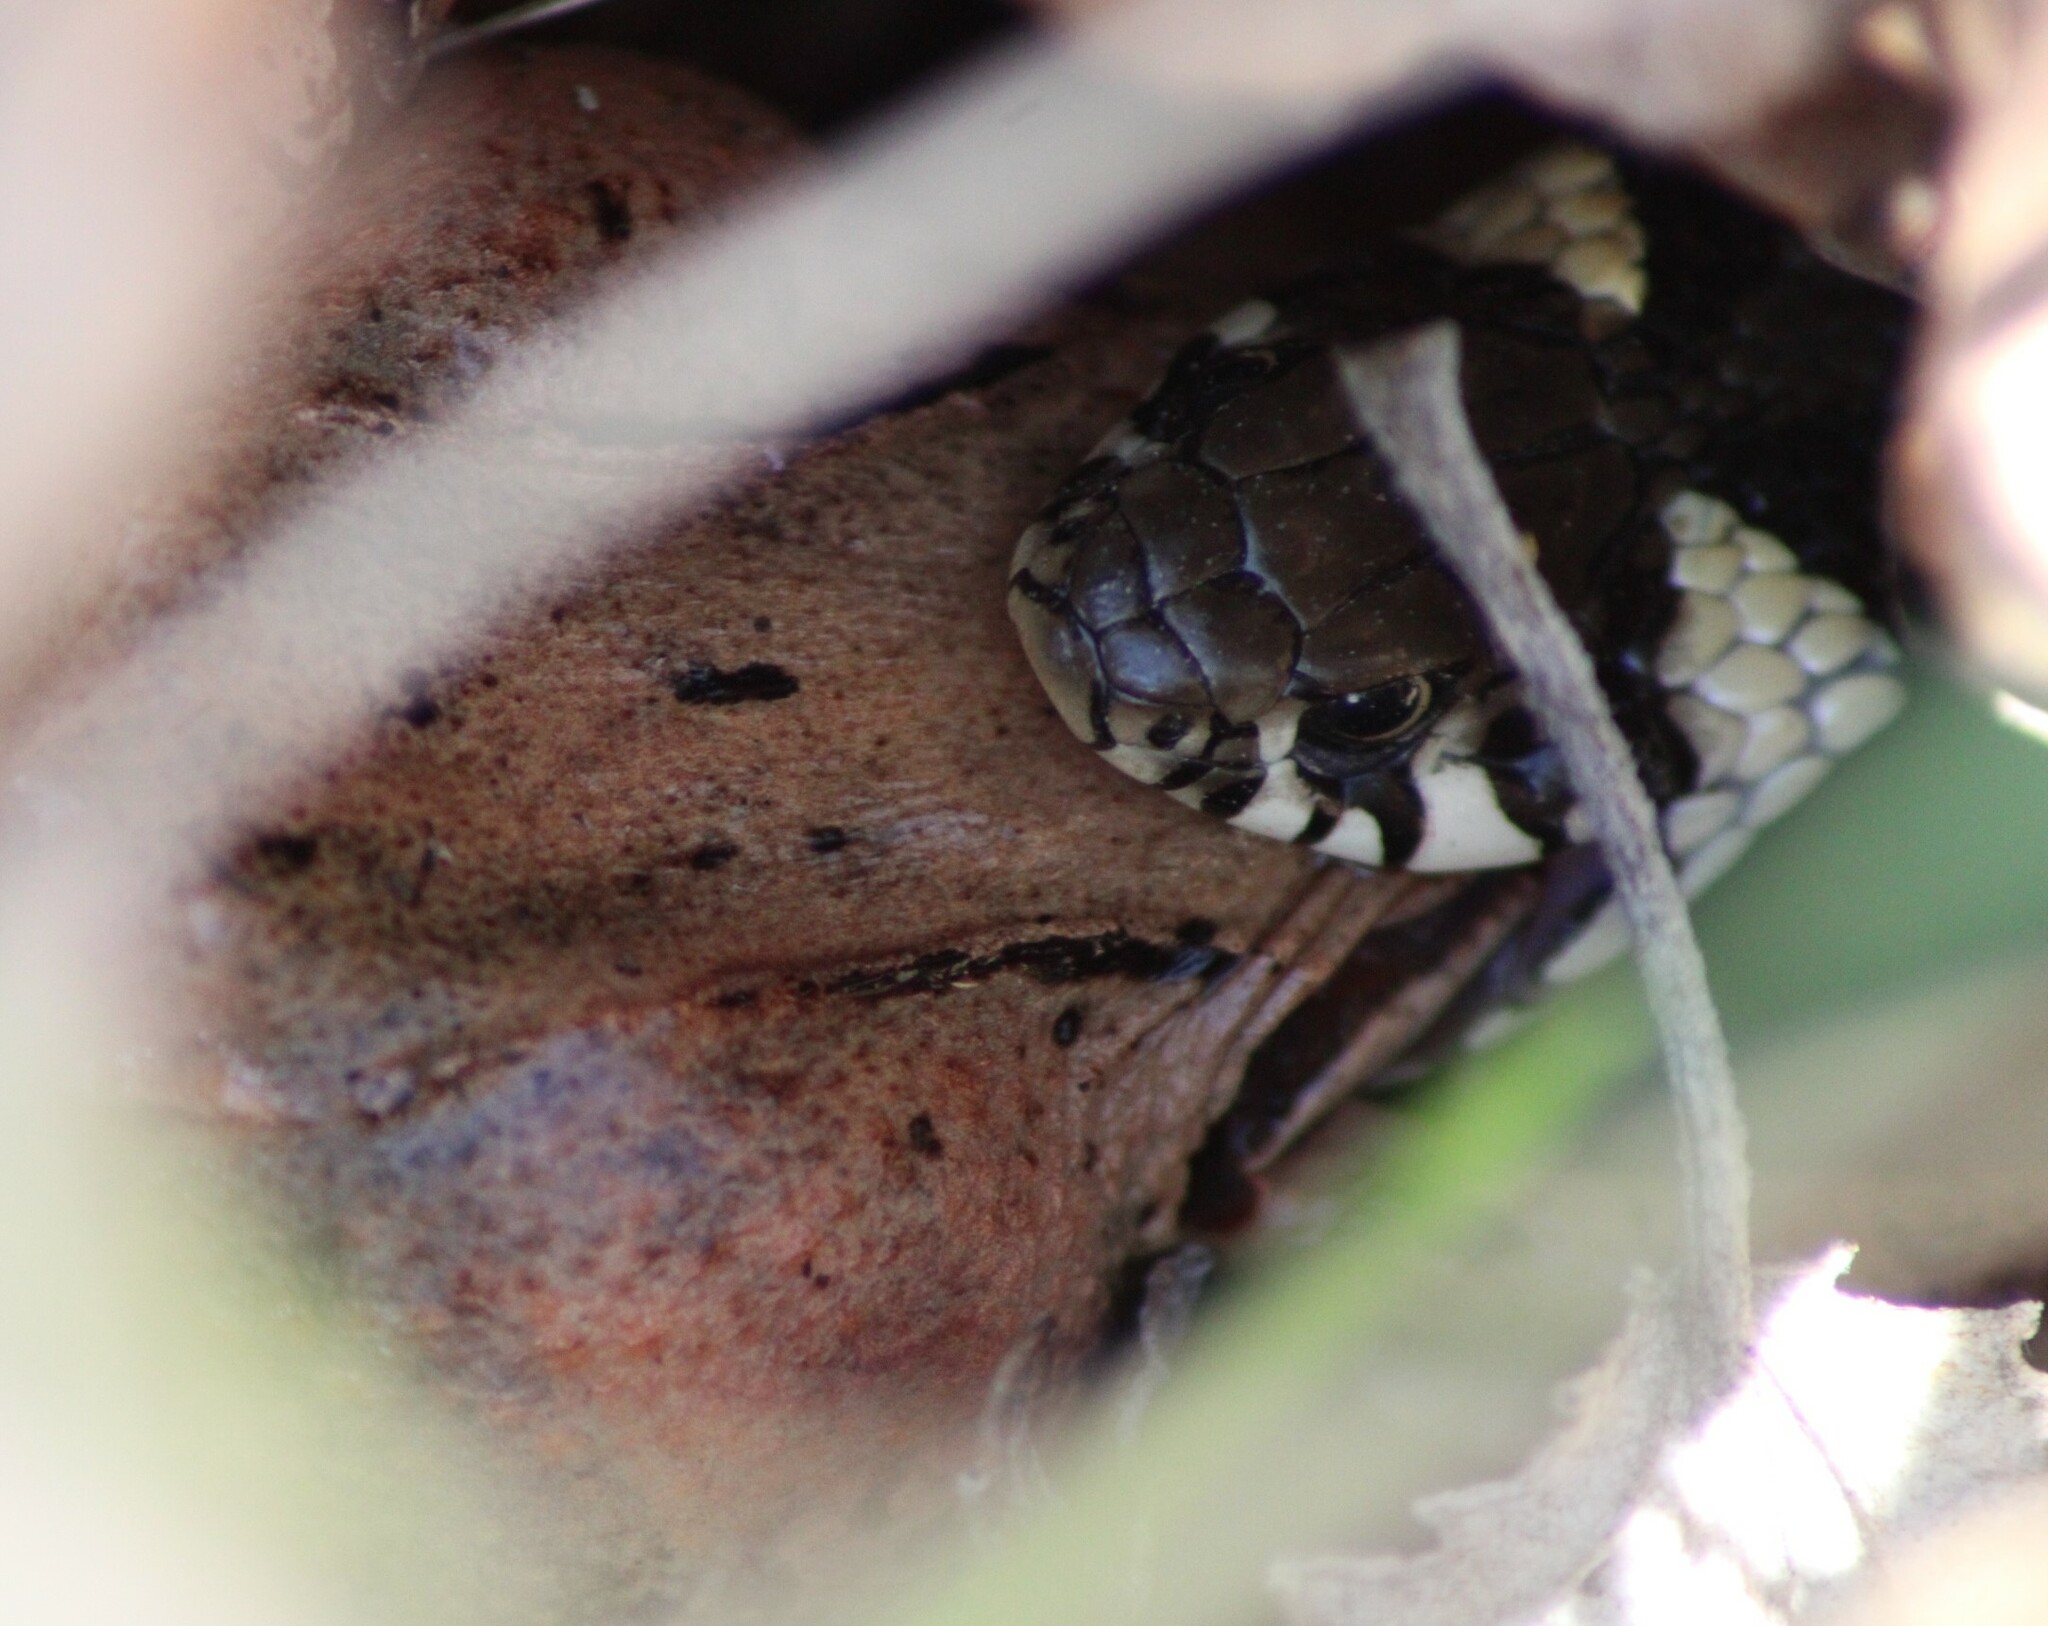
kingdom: Animalia
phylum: Chordata
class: Amphibia
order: Anura
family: Ranidae
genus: Rana
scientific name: Rana dalmatina
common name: Agile frog
